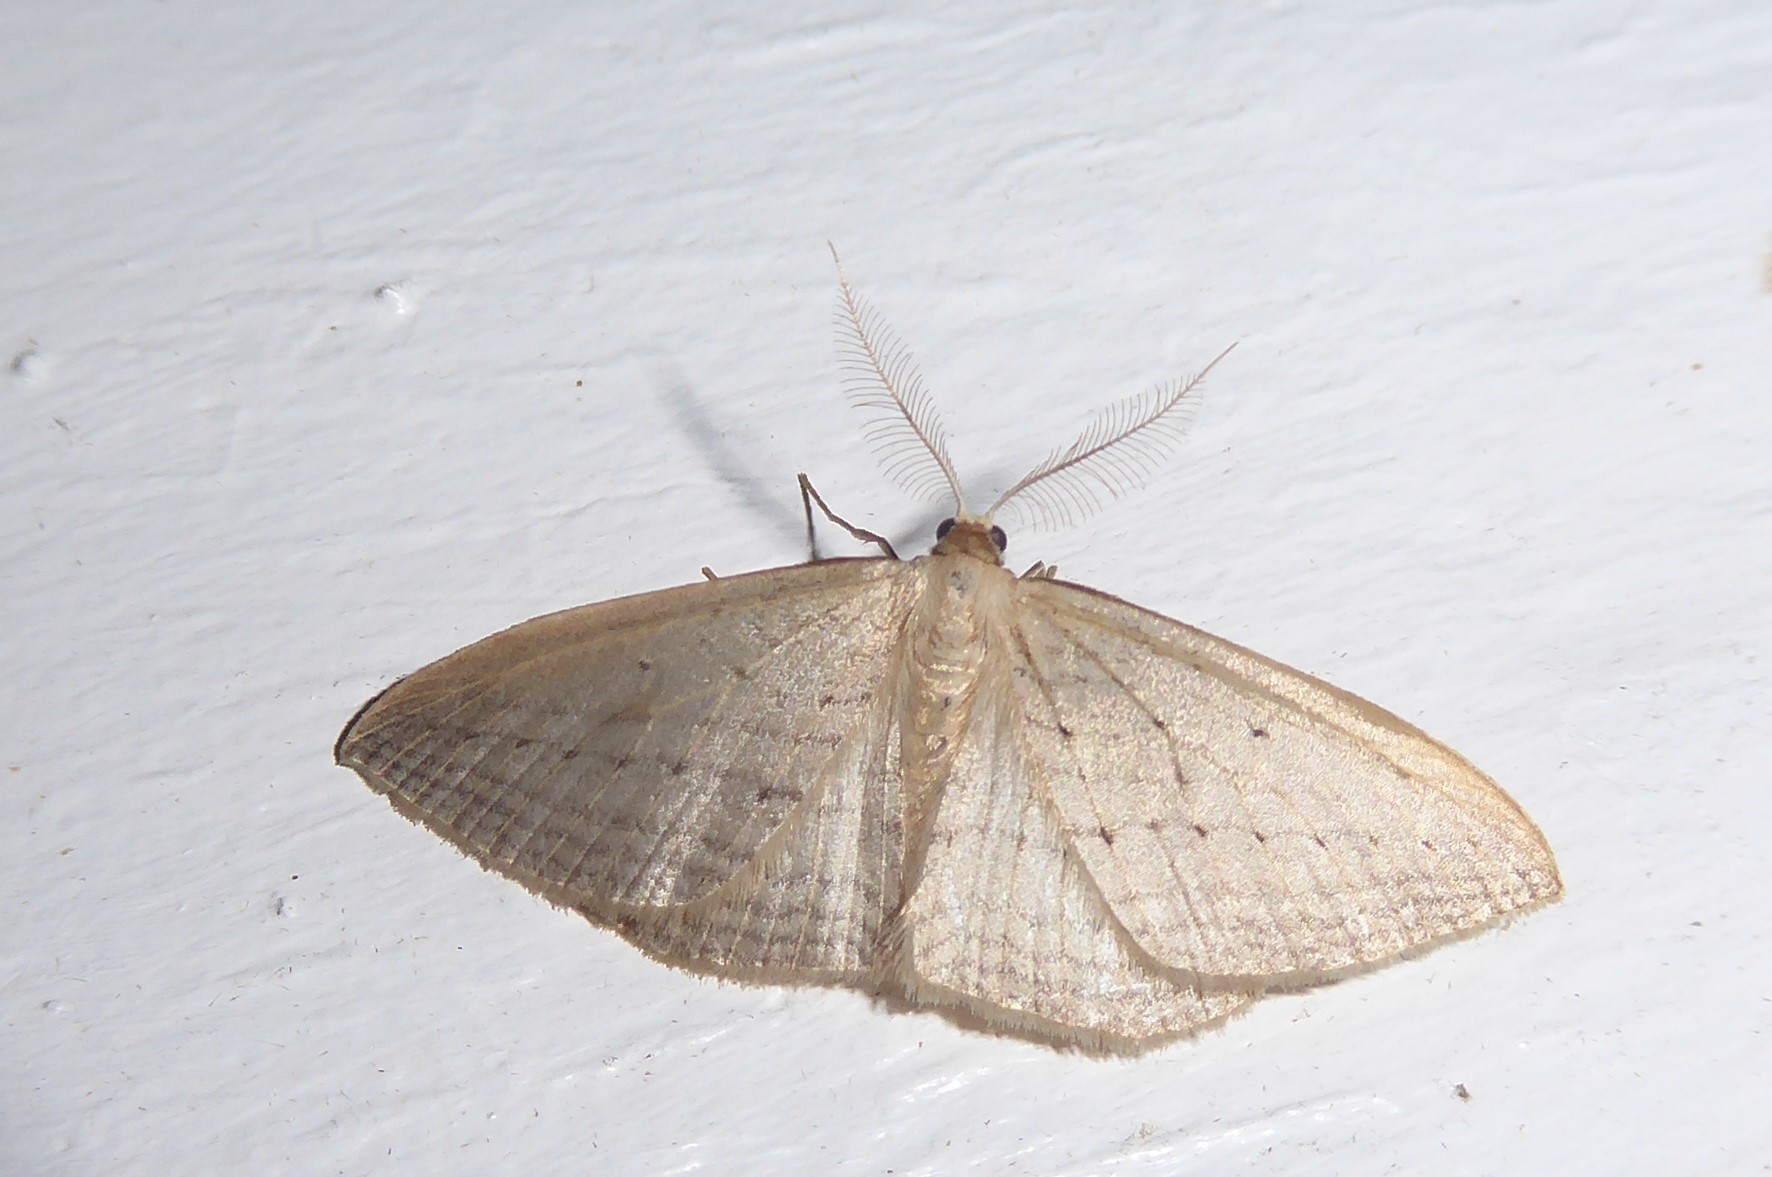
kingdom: Animalia
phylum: Arthropoda
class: Insecta
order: Lepidoptera
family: Geometridae
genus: Orthoclydon
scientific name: Orthoclydon praefectata
